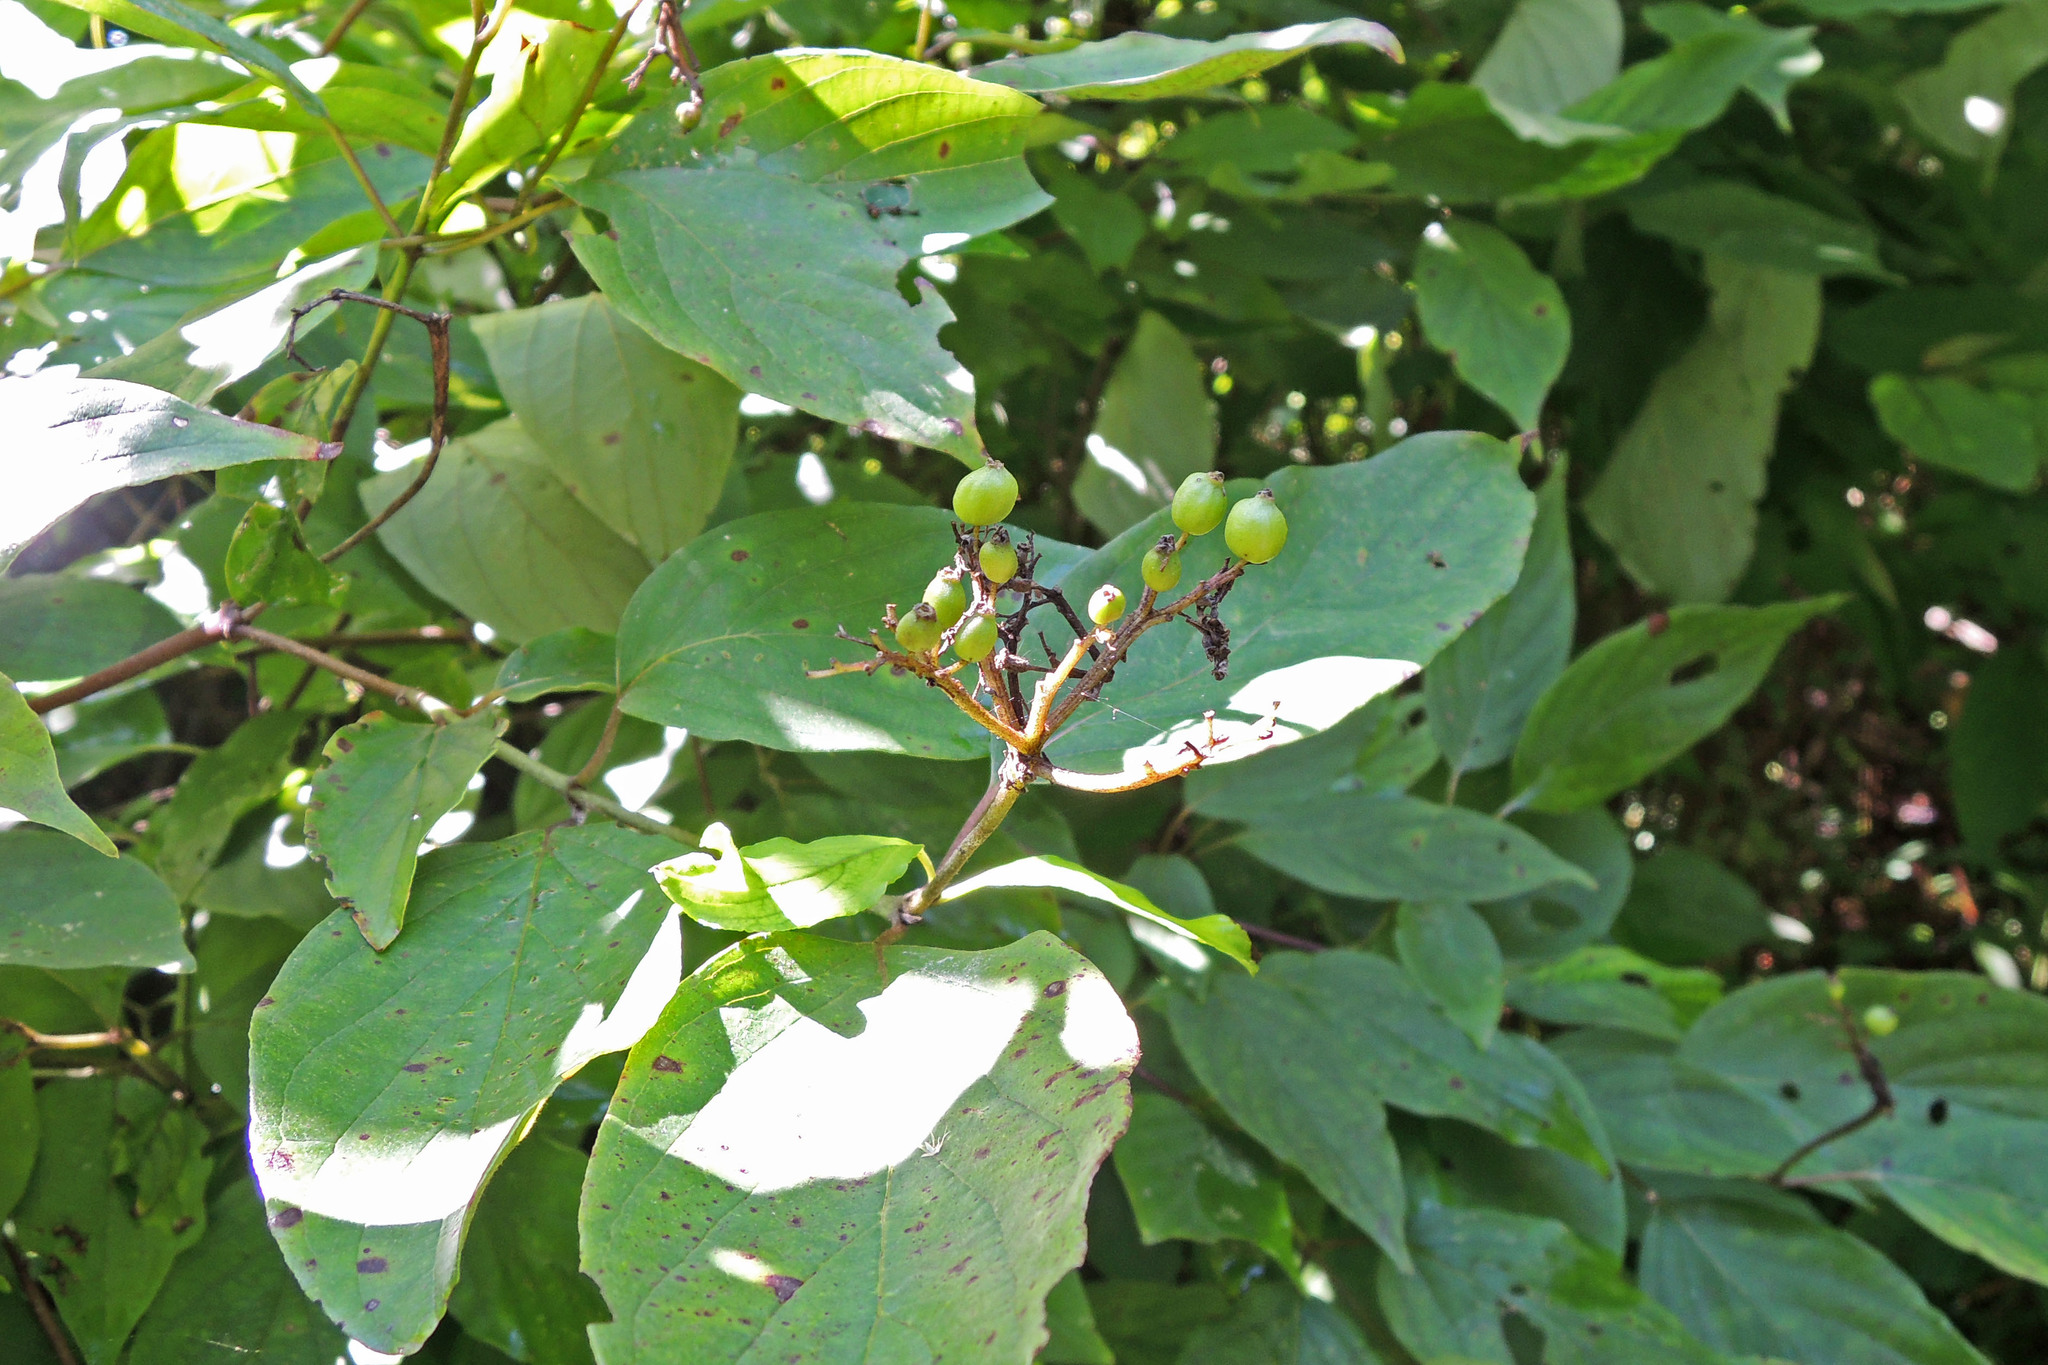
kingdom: Plantae
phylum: Tracheophyta
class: Magnoliopsida
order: Cornales
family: Cornaceae
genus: Cornus
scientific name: Cornus amomum
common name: Silky dogwood
